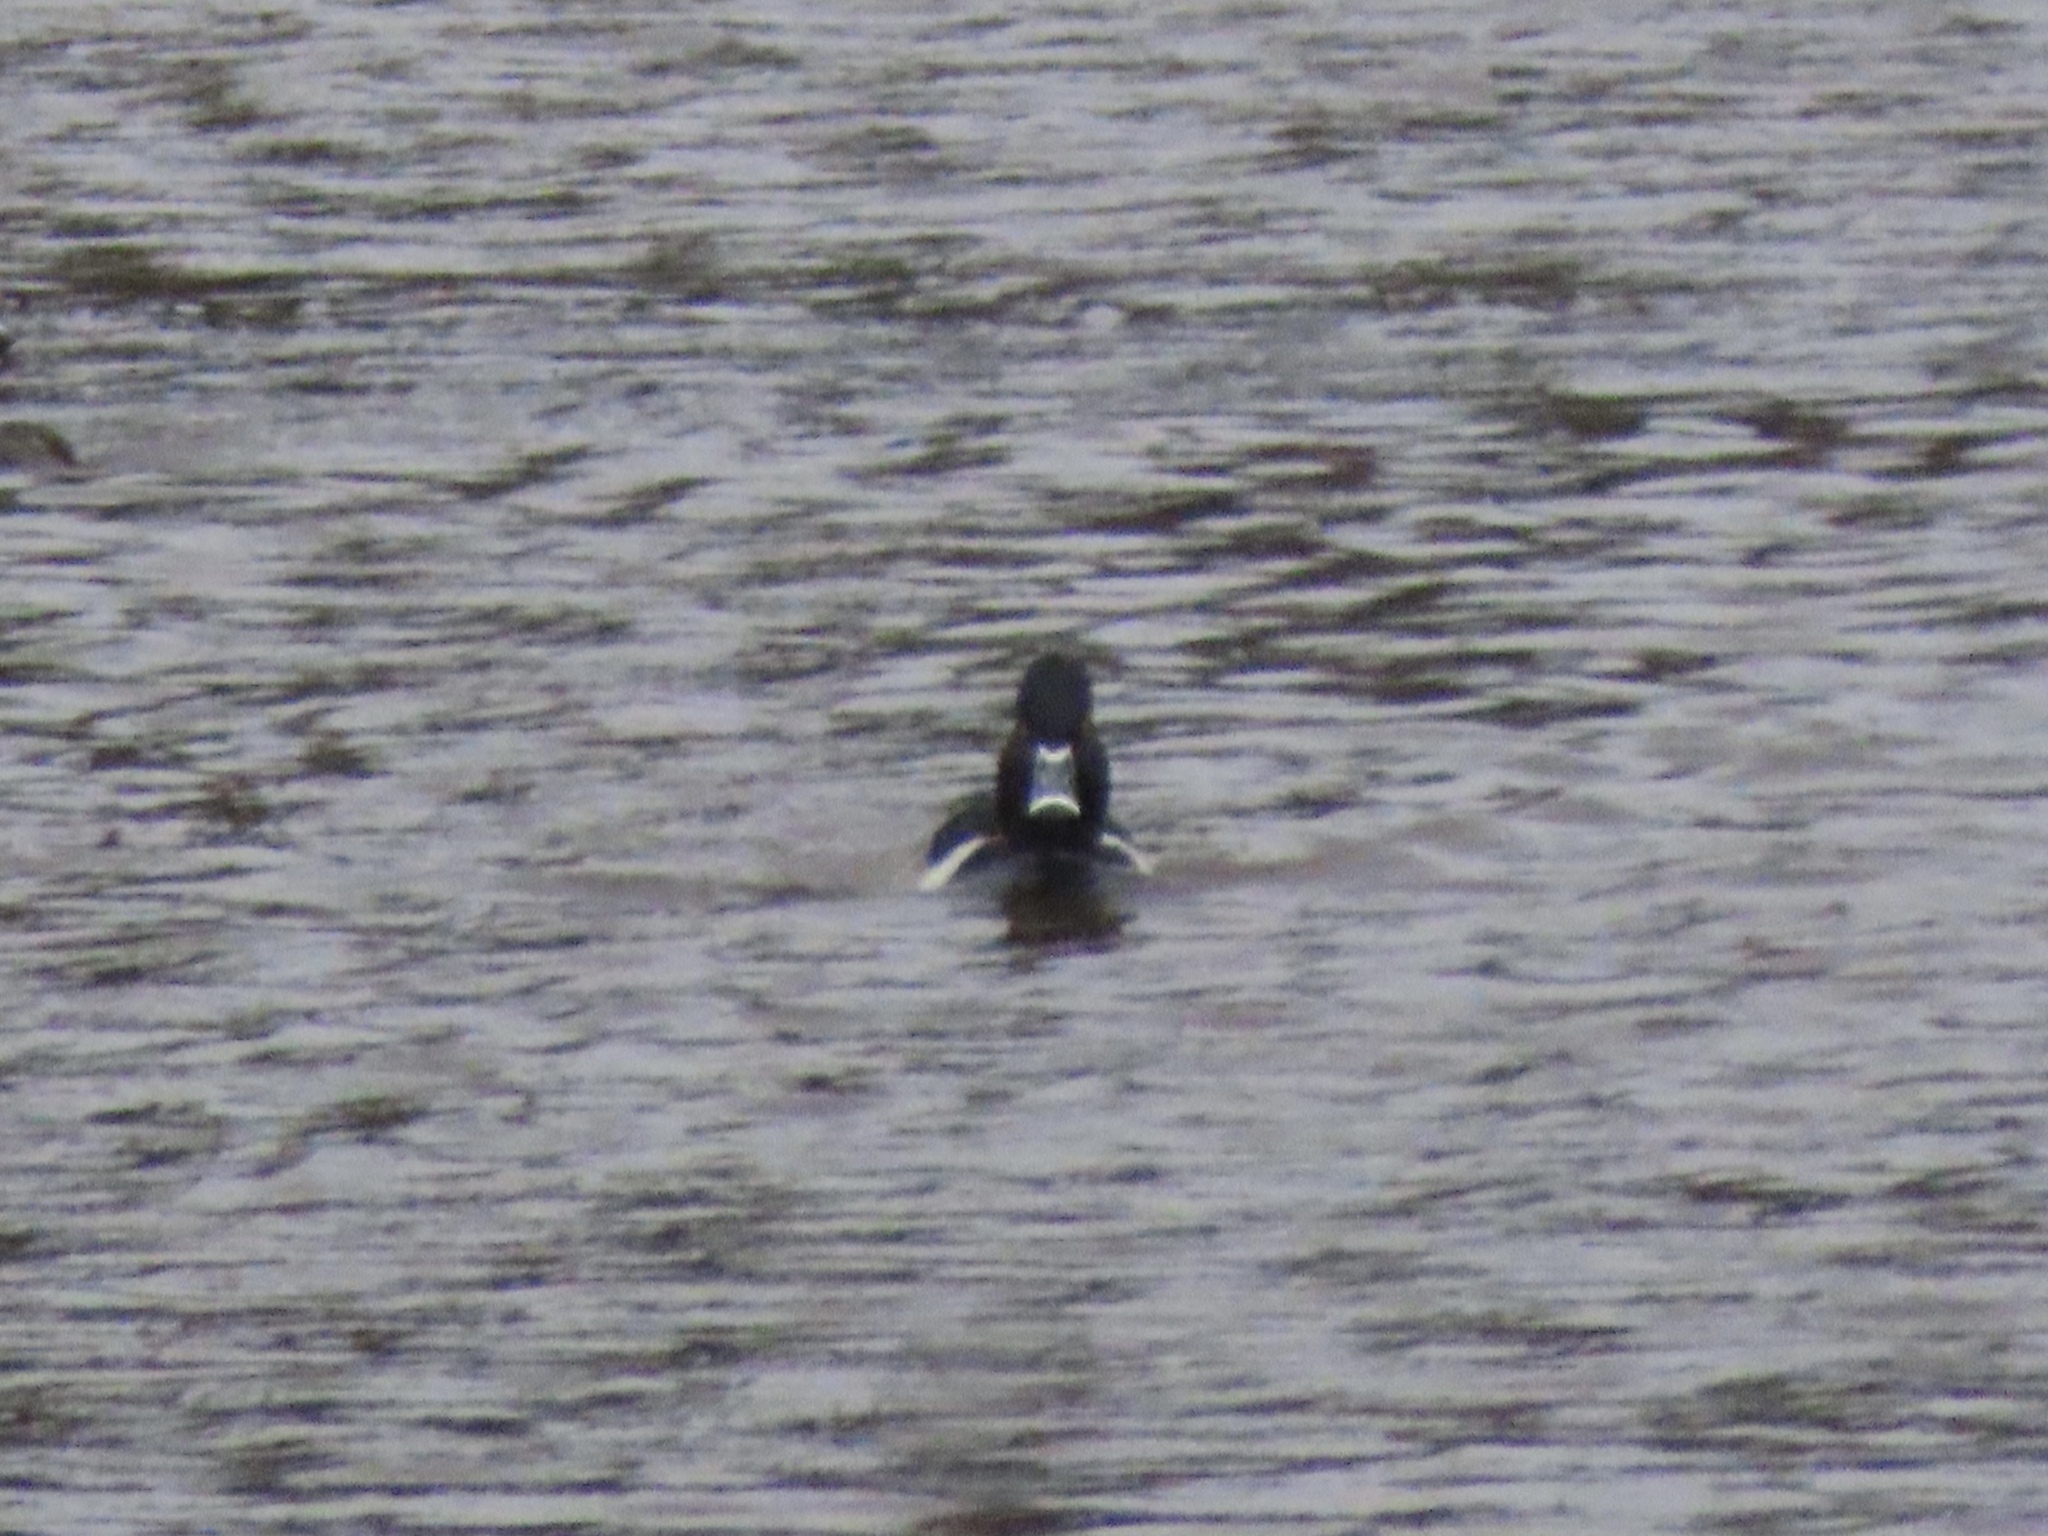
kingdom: Animalia
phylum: Chordata
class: Aves
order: Anseriformes
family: Anatidae
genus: Aythya
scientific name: Aythya collaris
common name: Ring-necked duck
